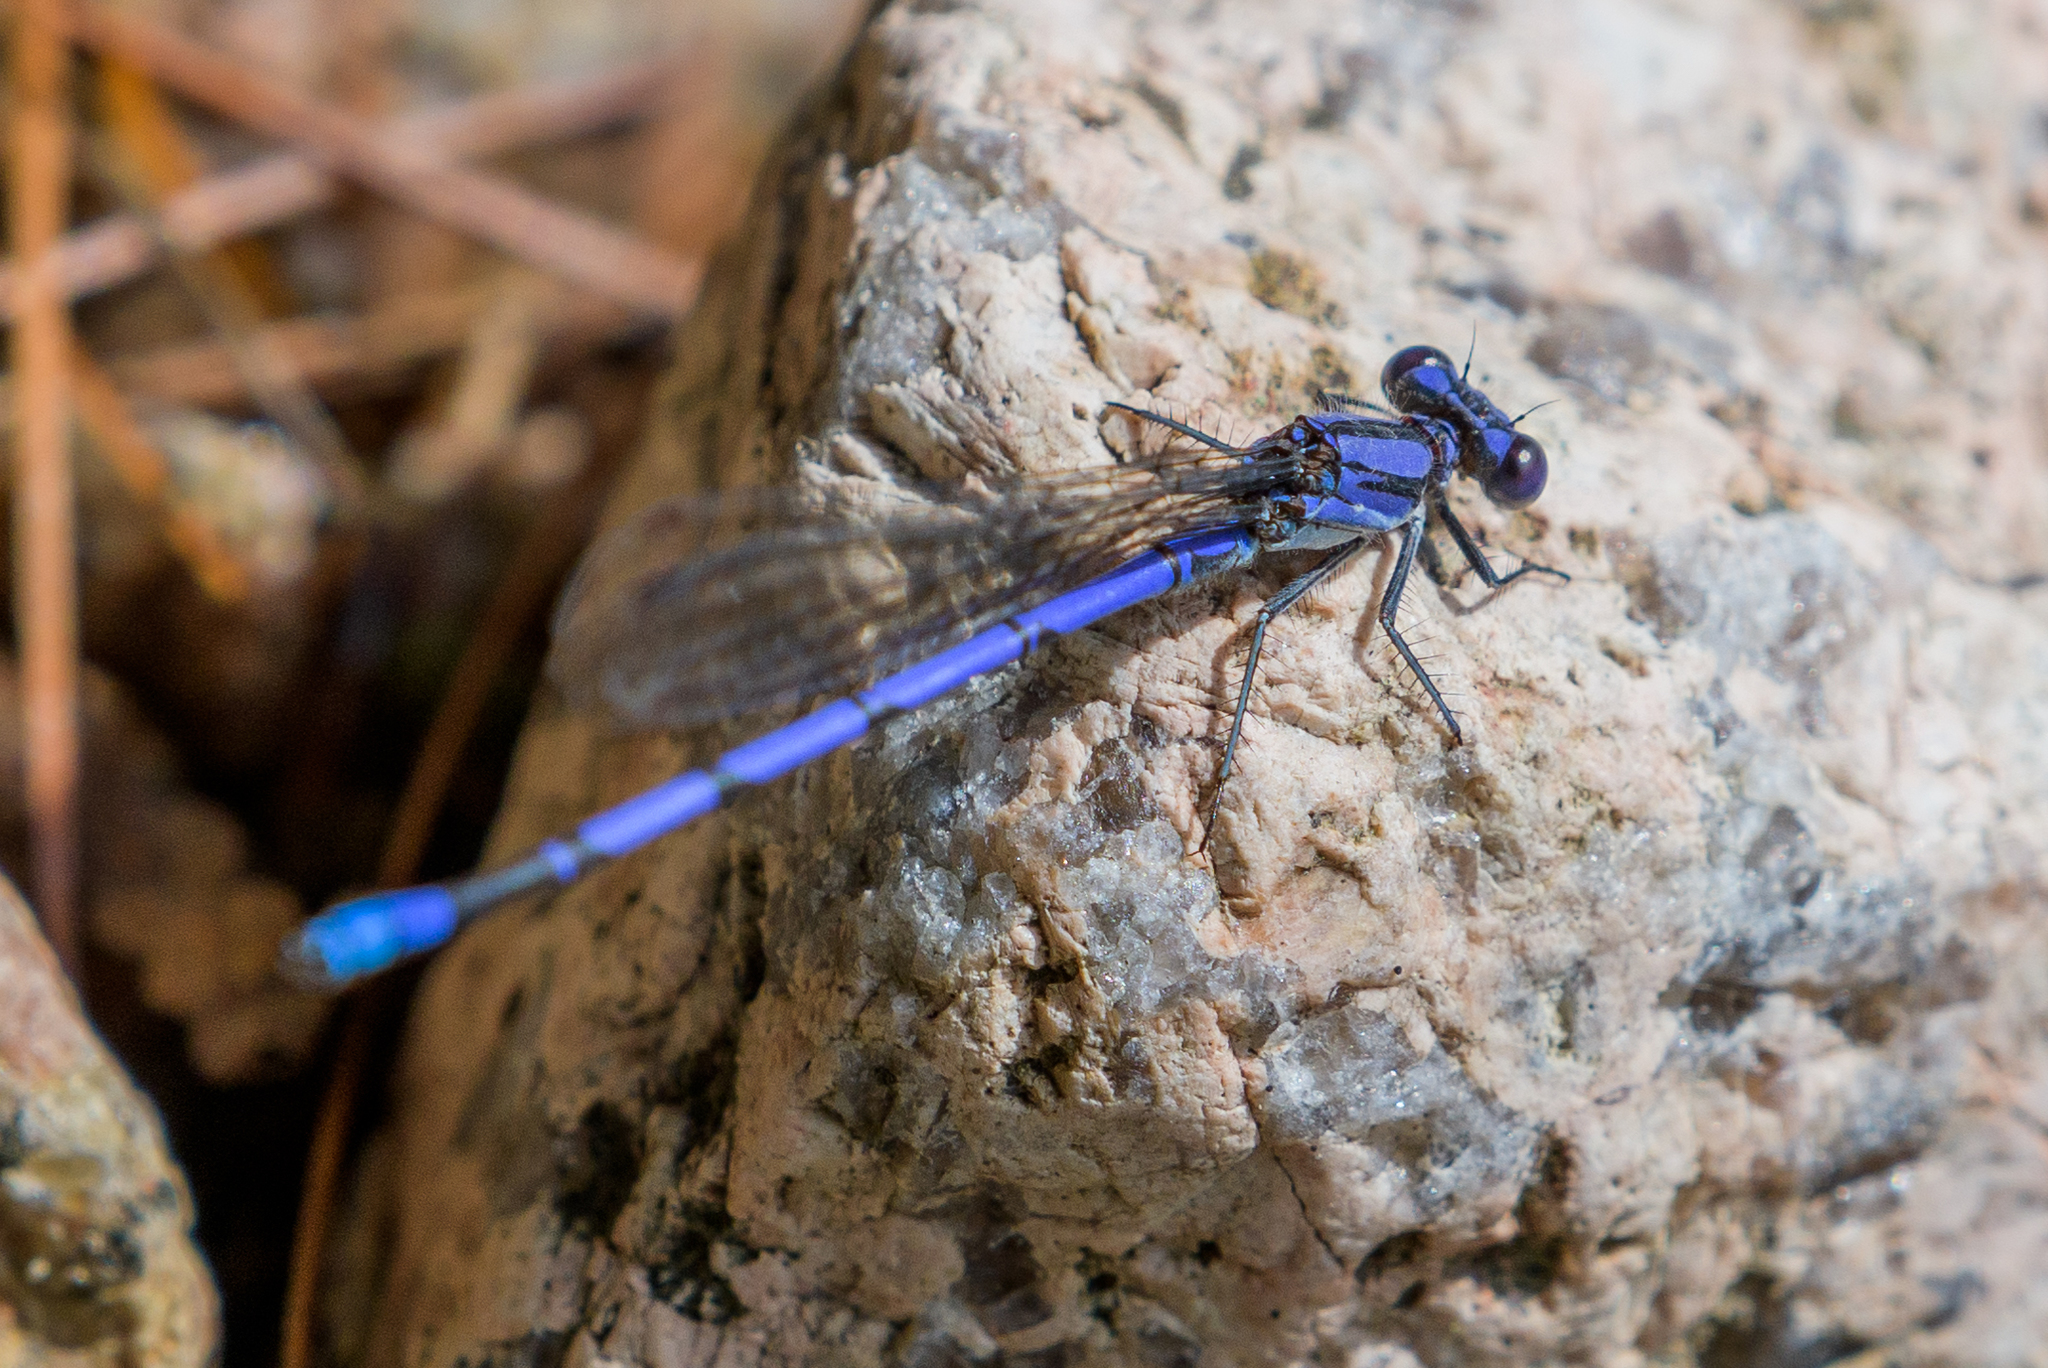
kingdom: Animalia
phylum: Arthropoda
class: Insecta
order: Odonata
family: Coenagrionidae
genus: Argia
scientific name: Argia fumipennis
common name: Variable dancer
